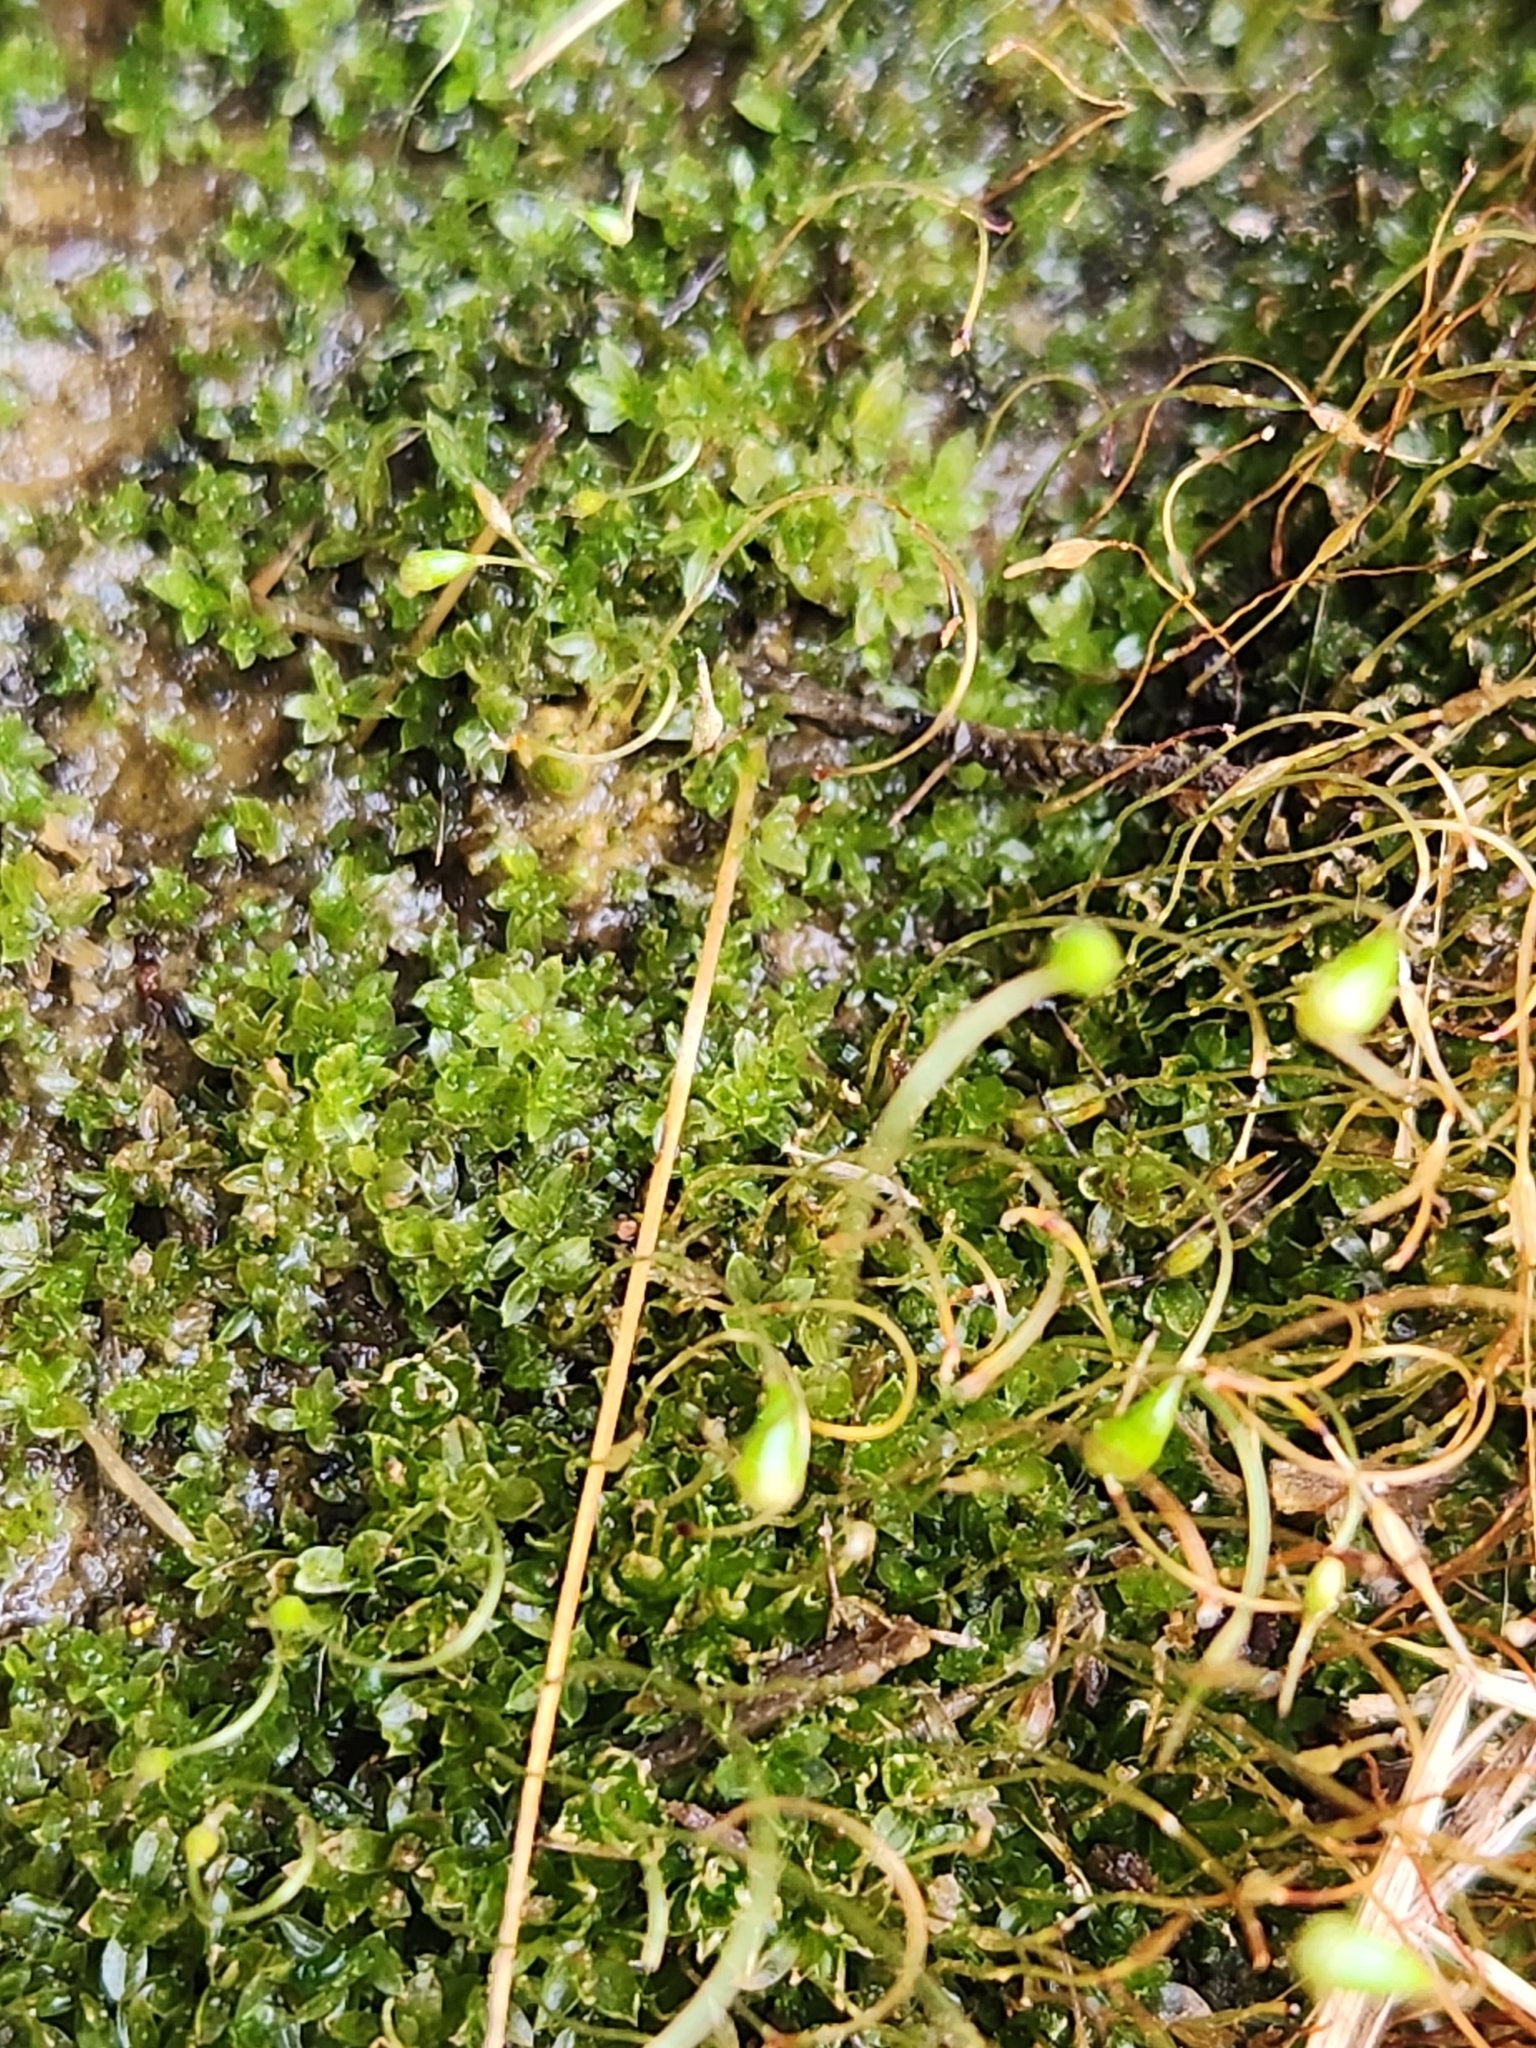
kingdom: Plantae
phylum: Bryophyta
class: Bryopsida
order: Funariales
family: Funariaceae
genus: Funaria
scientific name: Funaria hygrometrica
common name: Common cord moss
